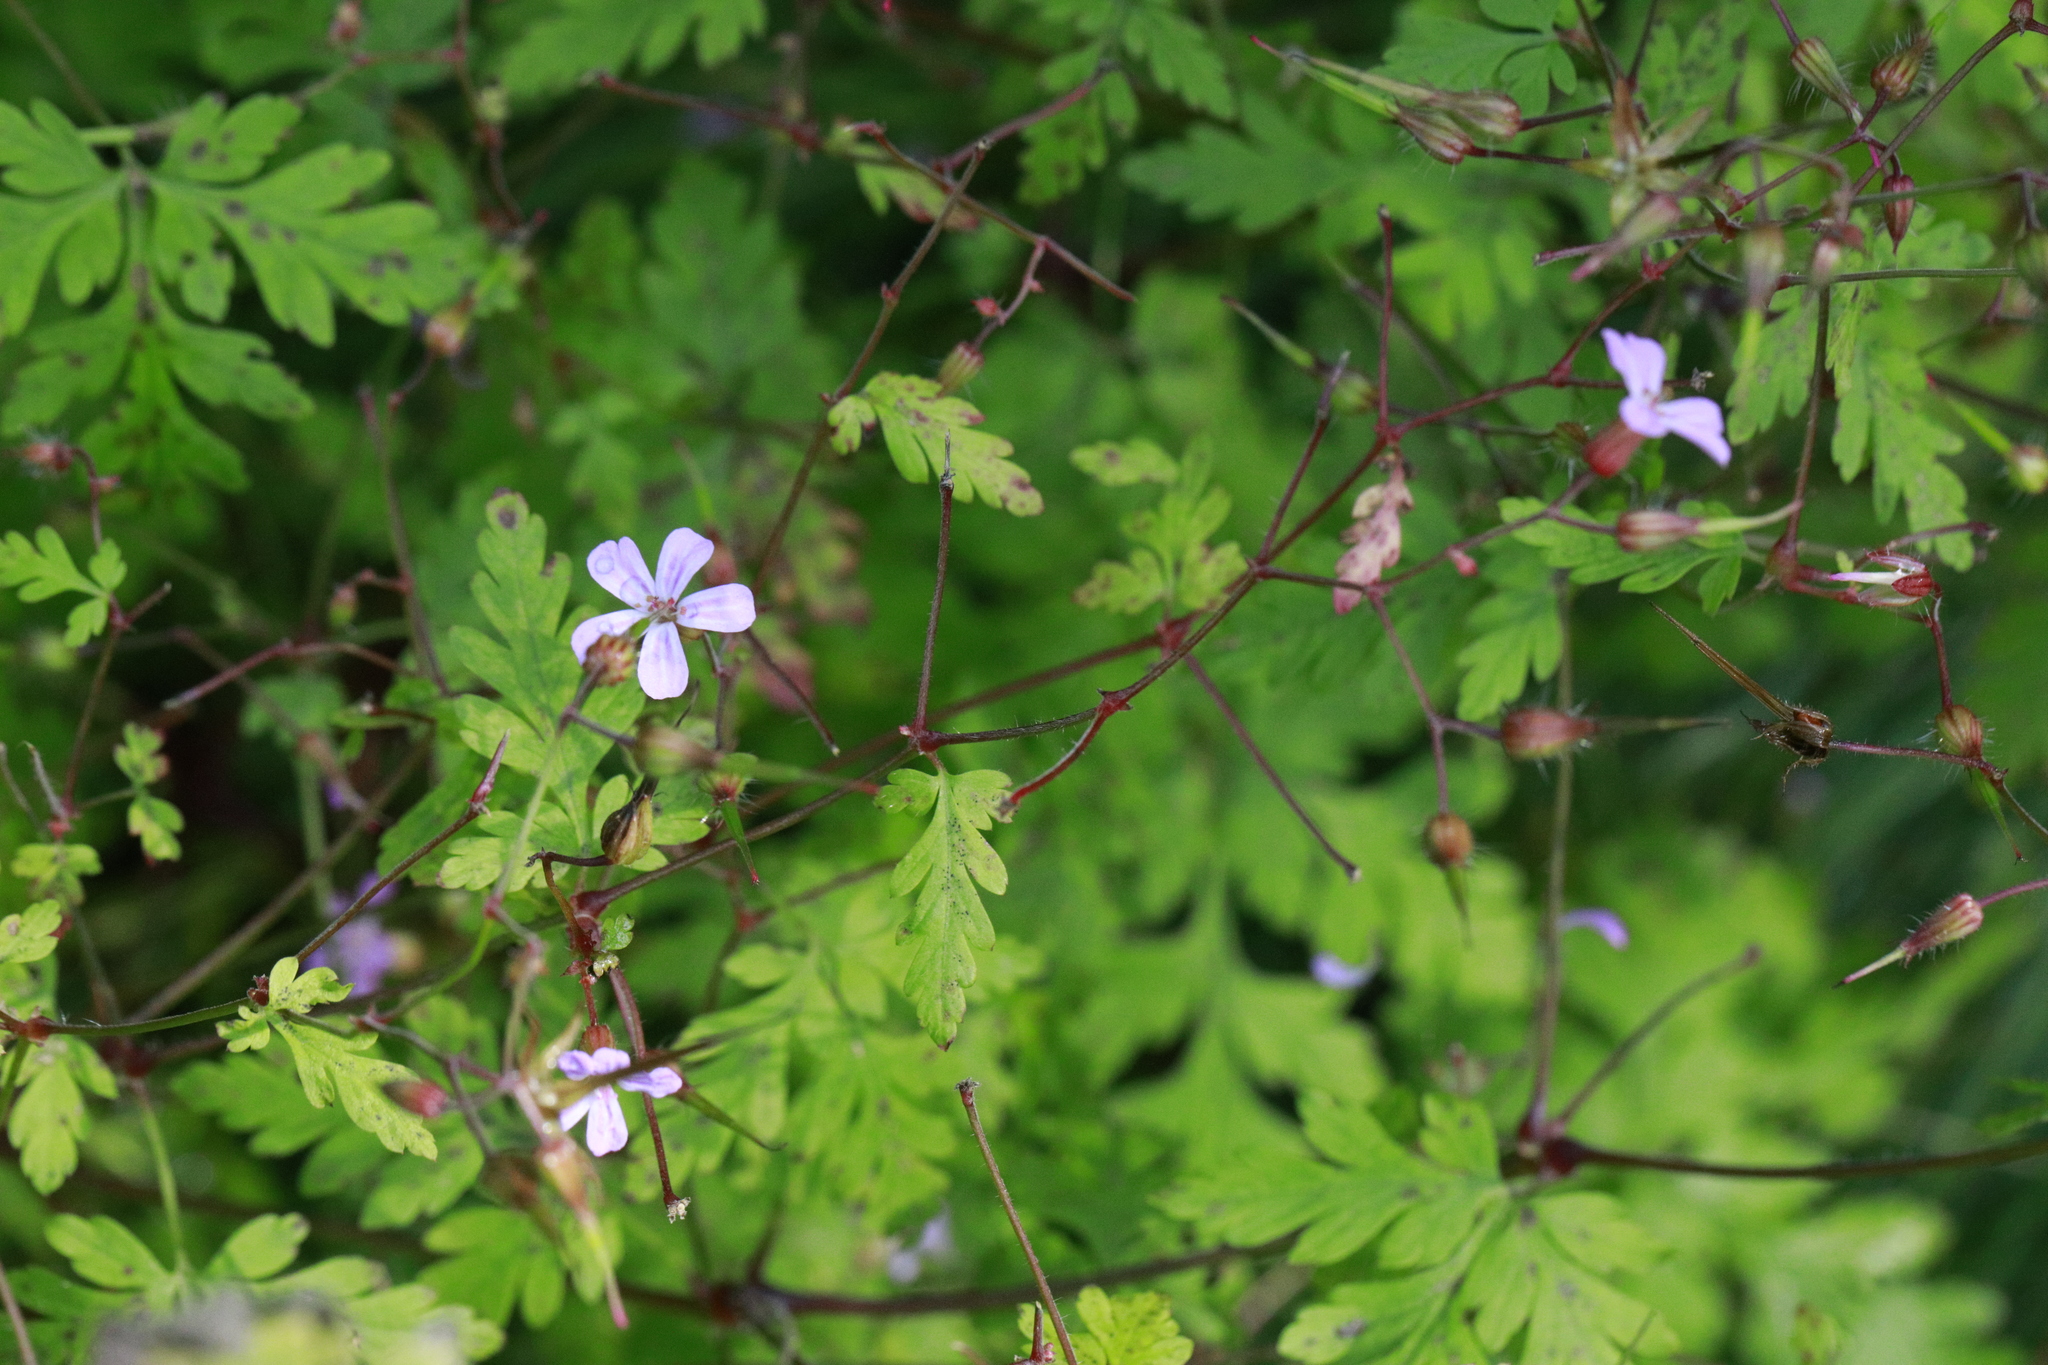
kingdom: Plantae
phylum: Tracheophyta
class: Magnoliopsida
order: Geraniales
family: Geraniaceae
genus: Geranium
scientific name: Geranium robertianum
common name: Herb-robert
